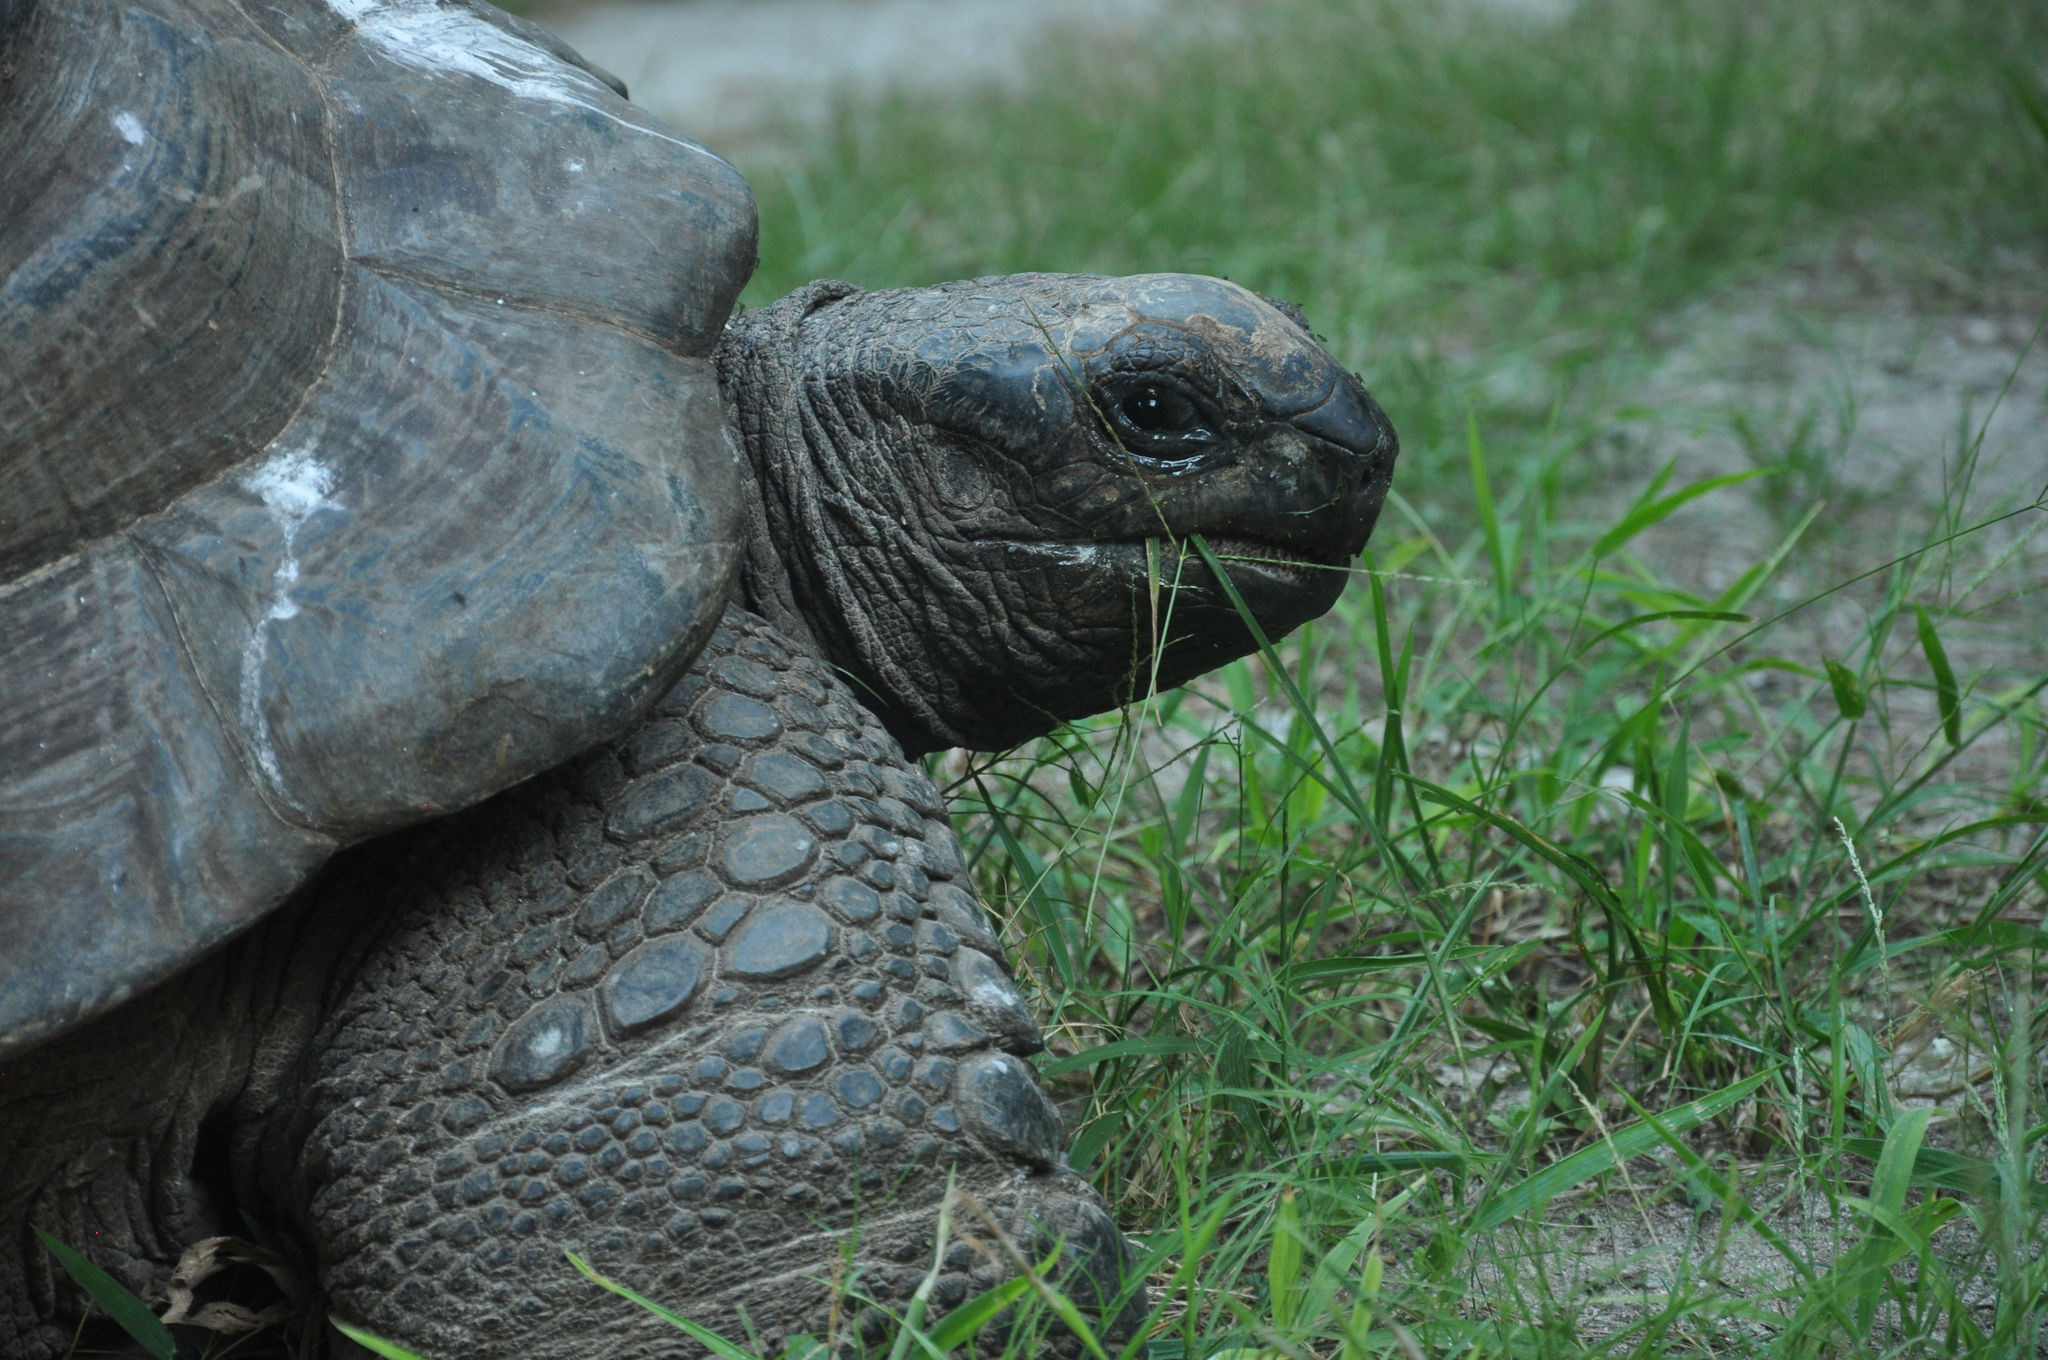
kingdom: Animalia
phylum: Chordata
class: Testudines
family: Testudinidae
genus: Aldabrachelys
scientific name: Aldabrachelys gigantea
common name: Aldabra giant tortoise
